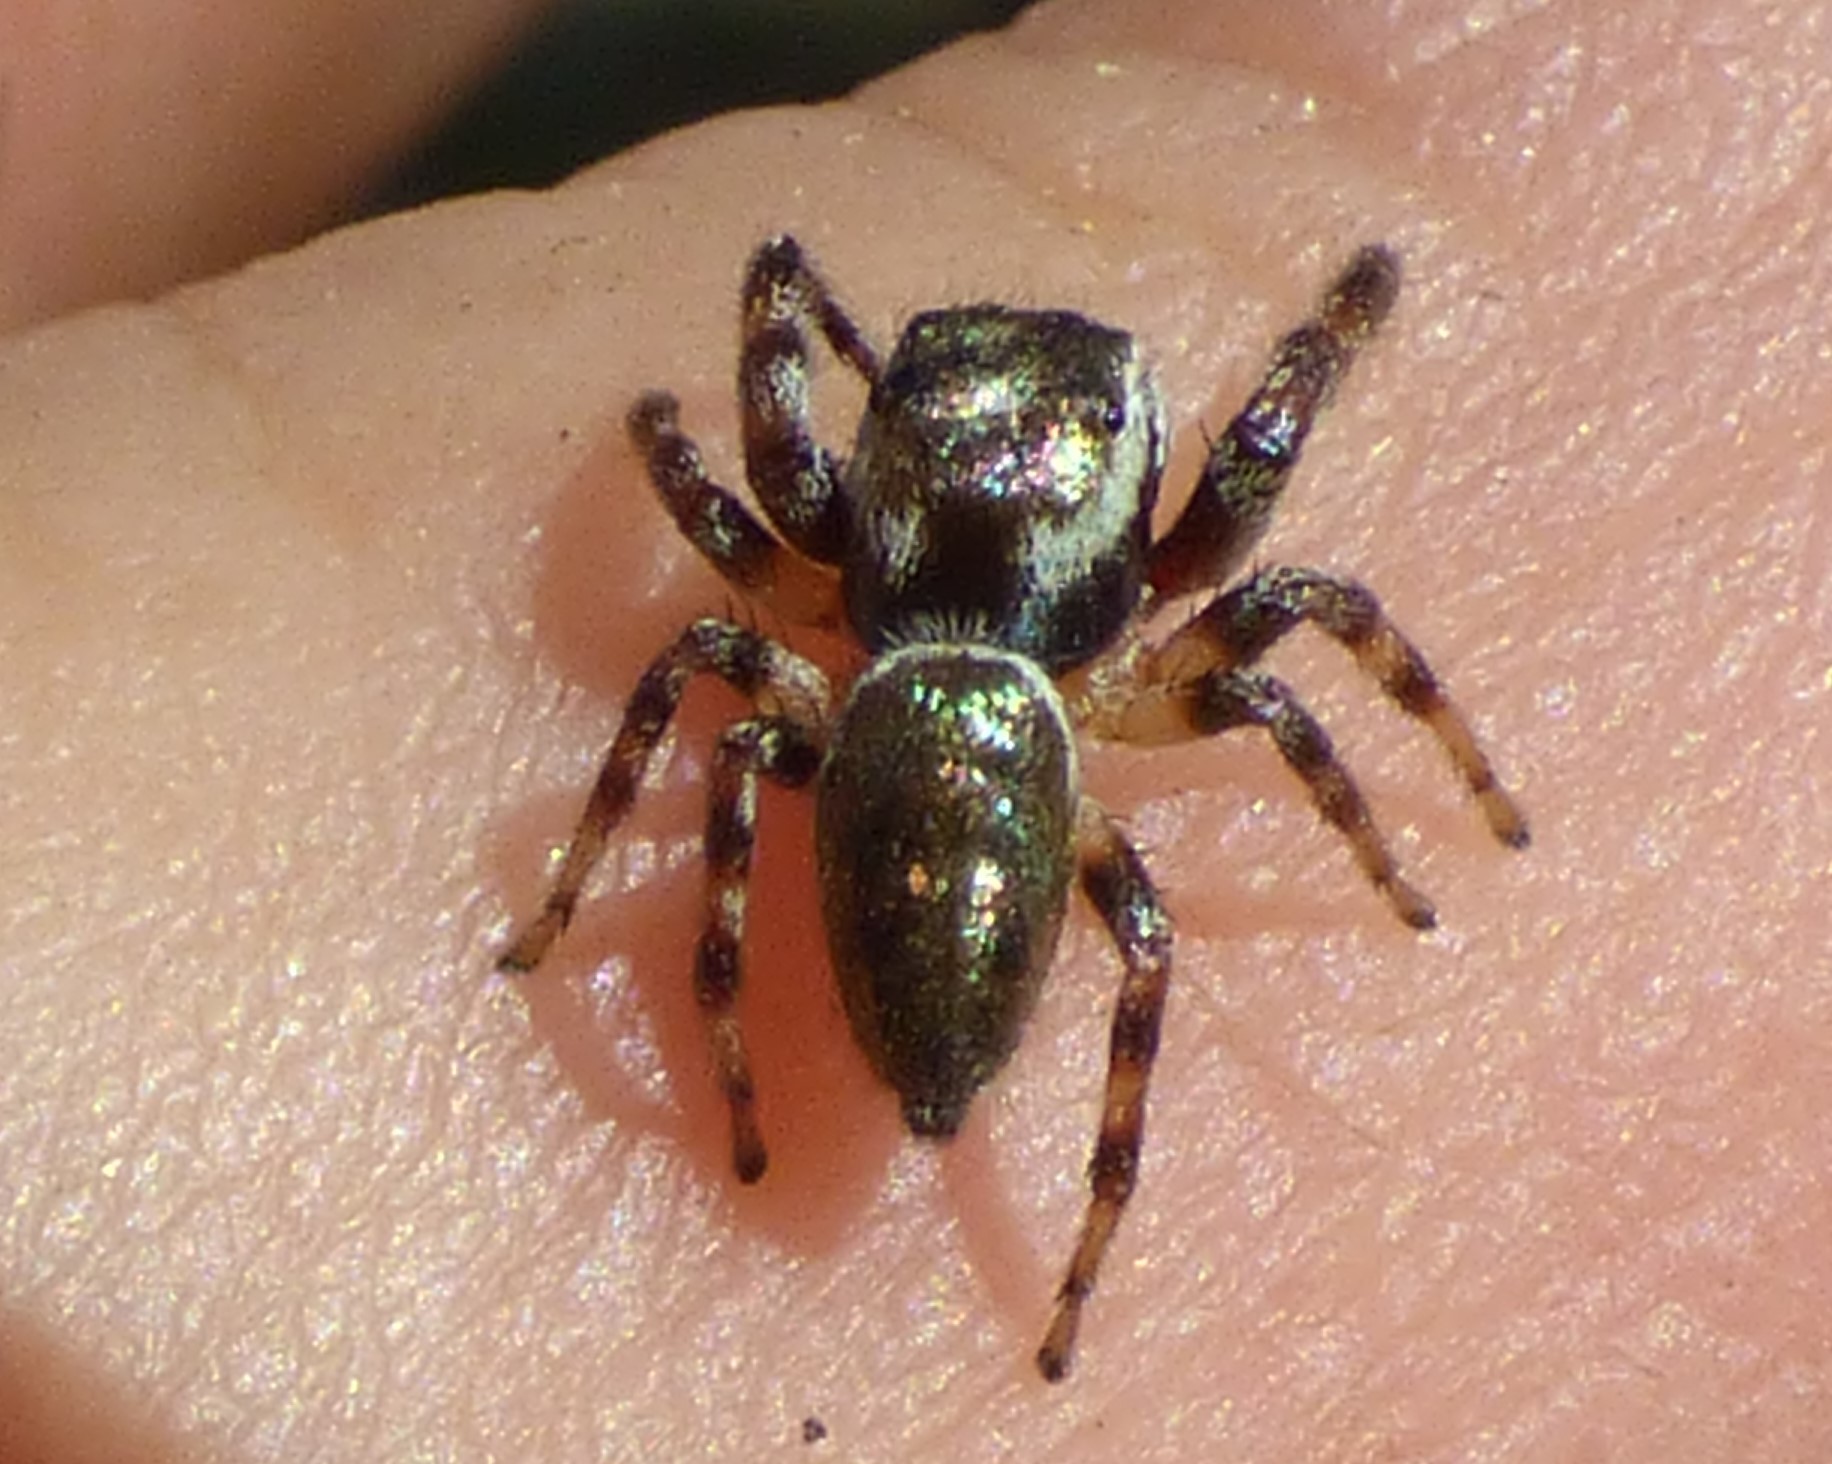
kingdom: Animalia
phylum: Arthropoda
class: Arachnida
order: Araneae
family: Salticidae
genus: Eris
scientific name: Eris rufa
